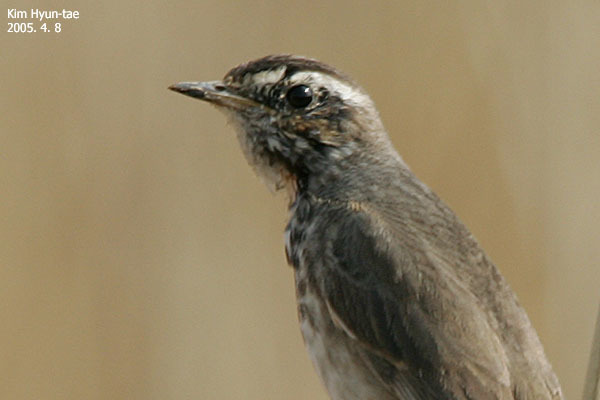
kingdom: Animalia
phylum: Chordata
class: Aves
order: Passeriformes
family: Muscicapidae
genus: Luscinia
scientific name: Luscinia svecica
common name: Bluethroat
